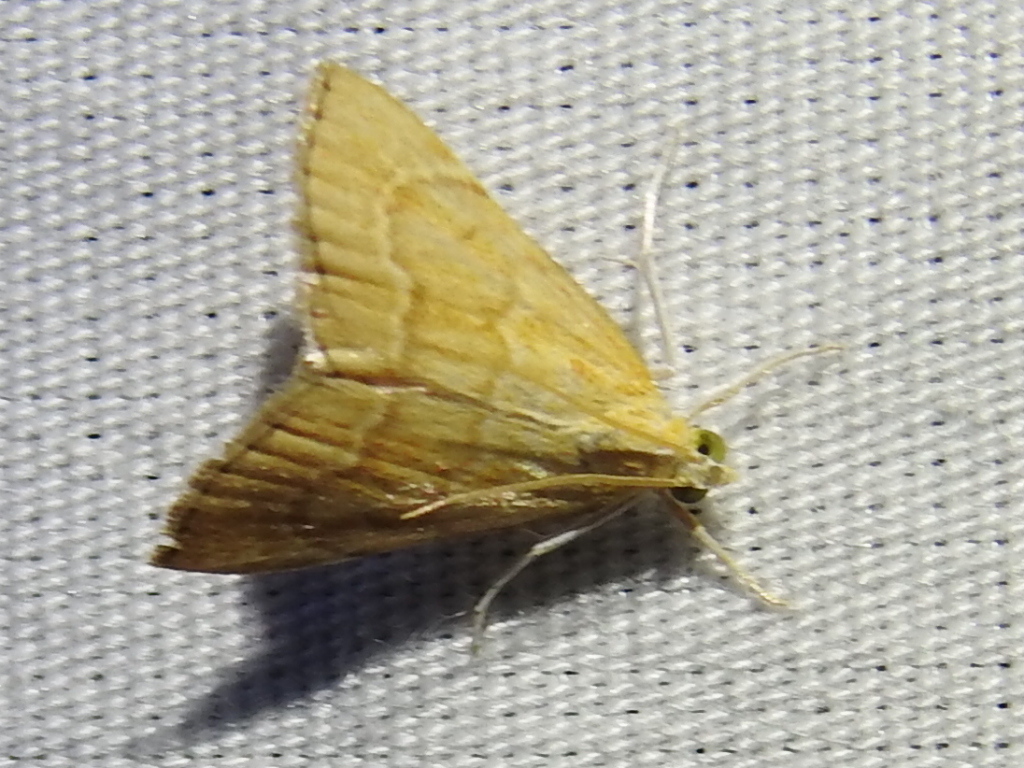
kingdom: Animalia
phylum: Arthropoda
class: Insecta
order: Lepidoptera
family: Crambidae
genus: Glaphyria
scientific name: Glaphyria invisalis
